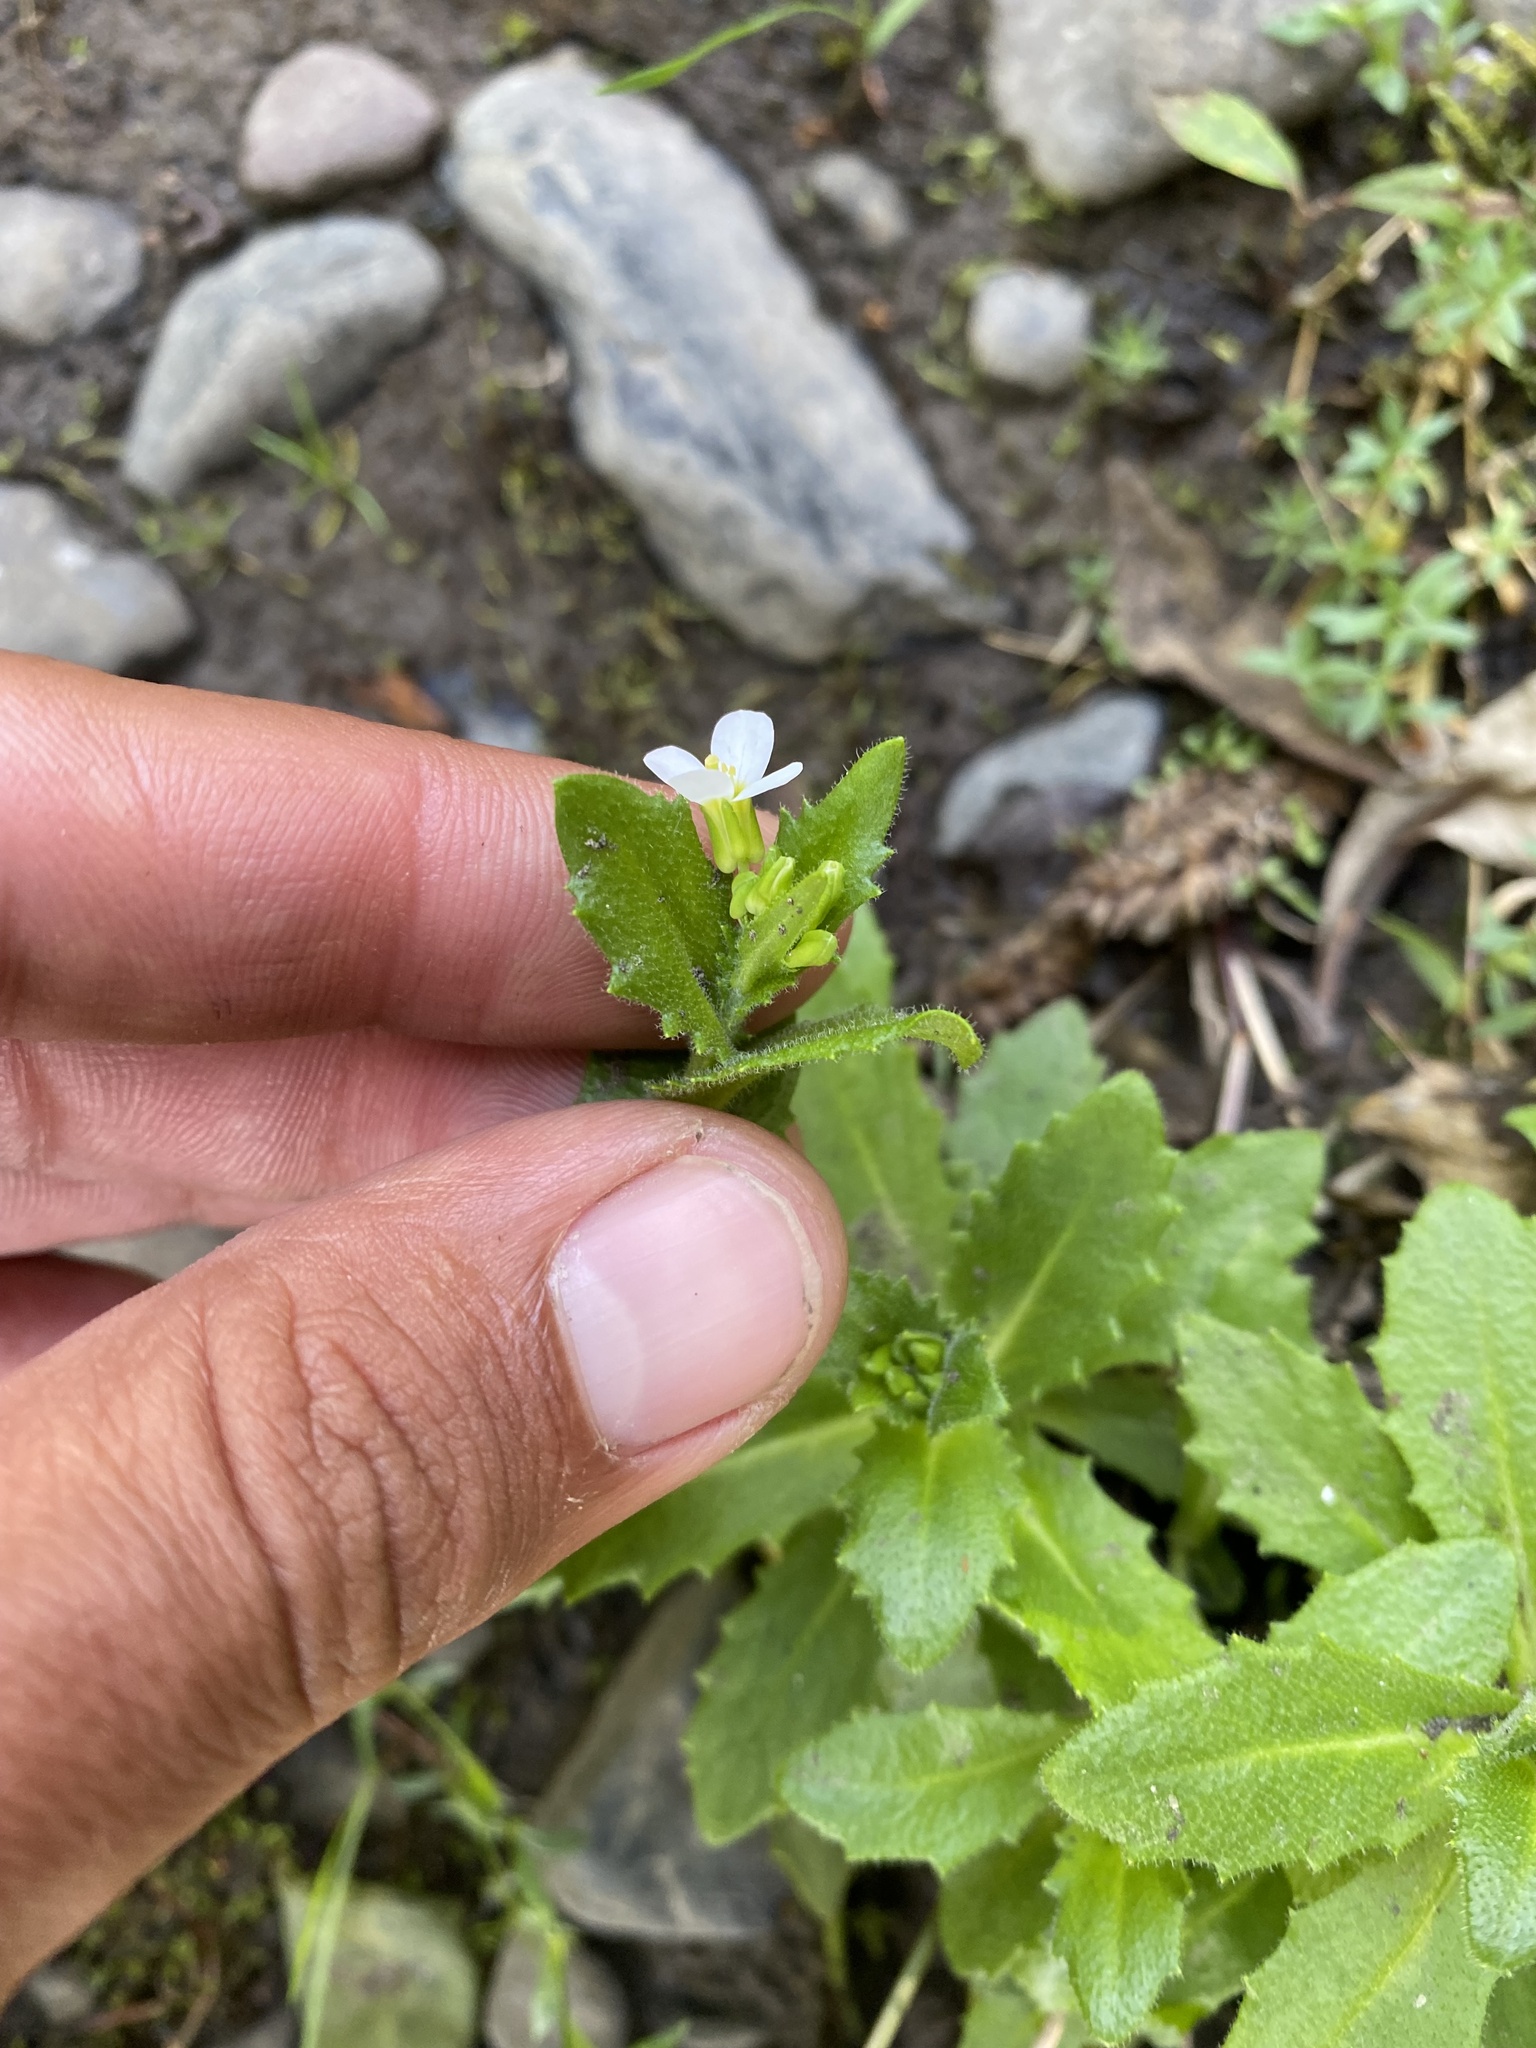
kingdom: Plantae
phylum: Tracheophyta
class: Magnoliopsida
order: Brassicales
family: Brassicaceae
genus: Arabis
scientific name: Arabis alpina
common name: Alpine rock-cress
